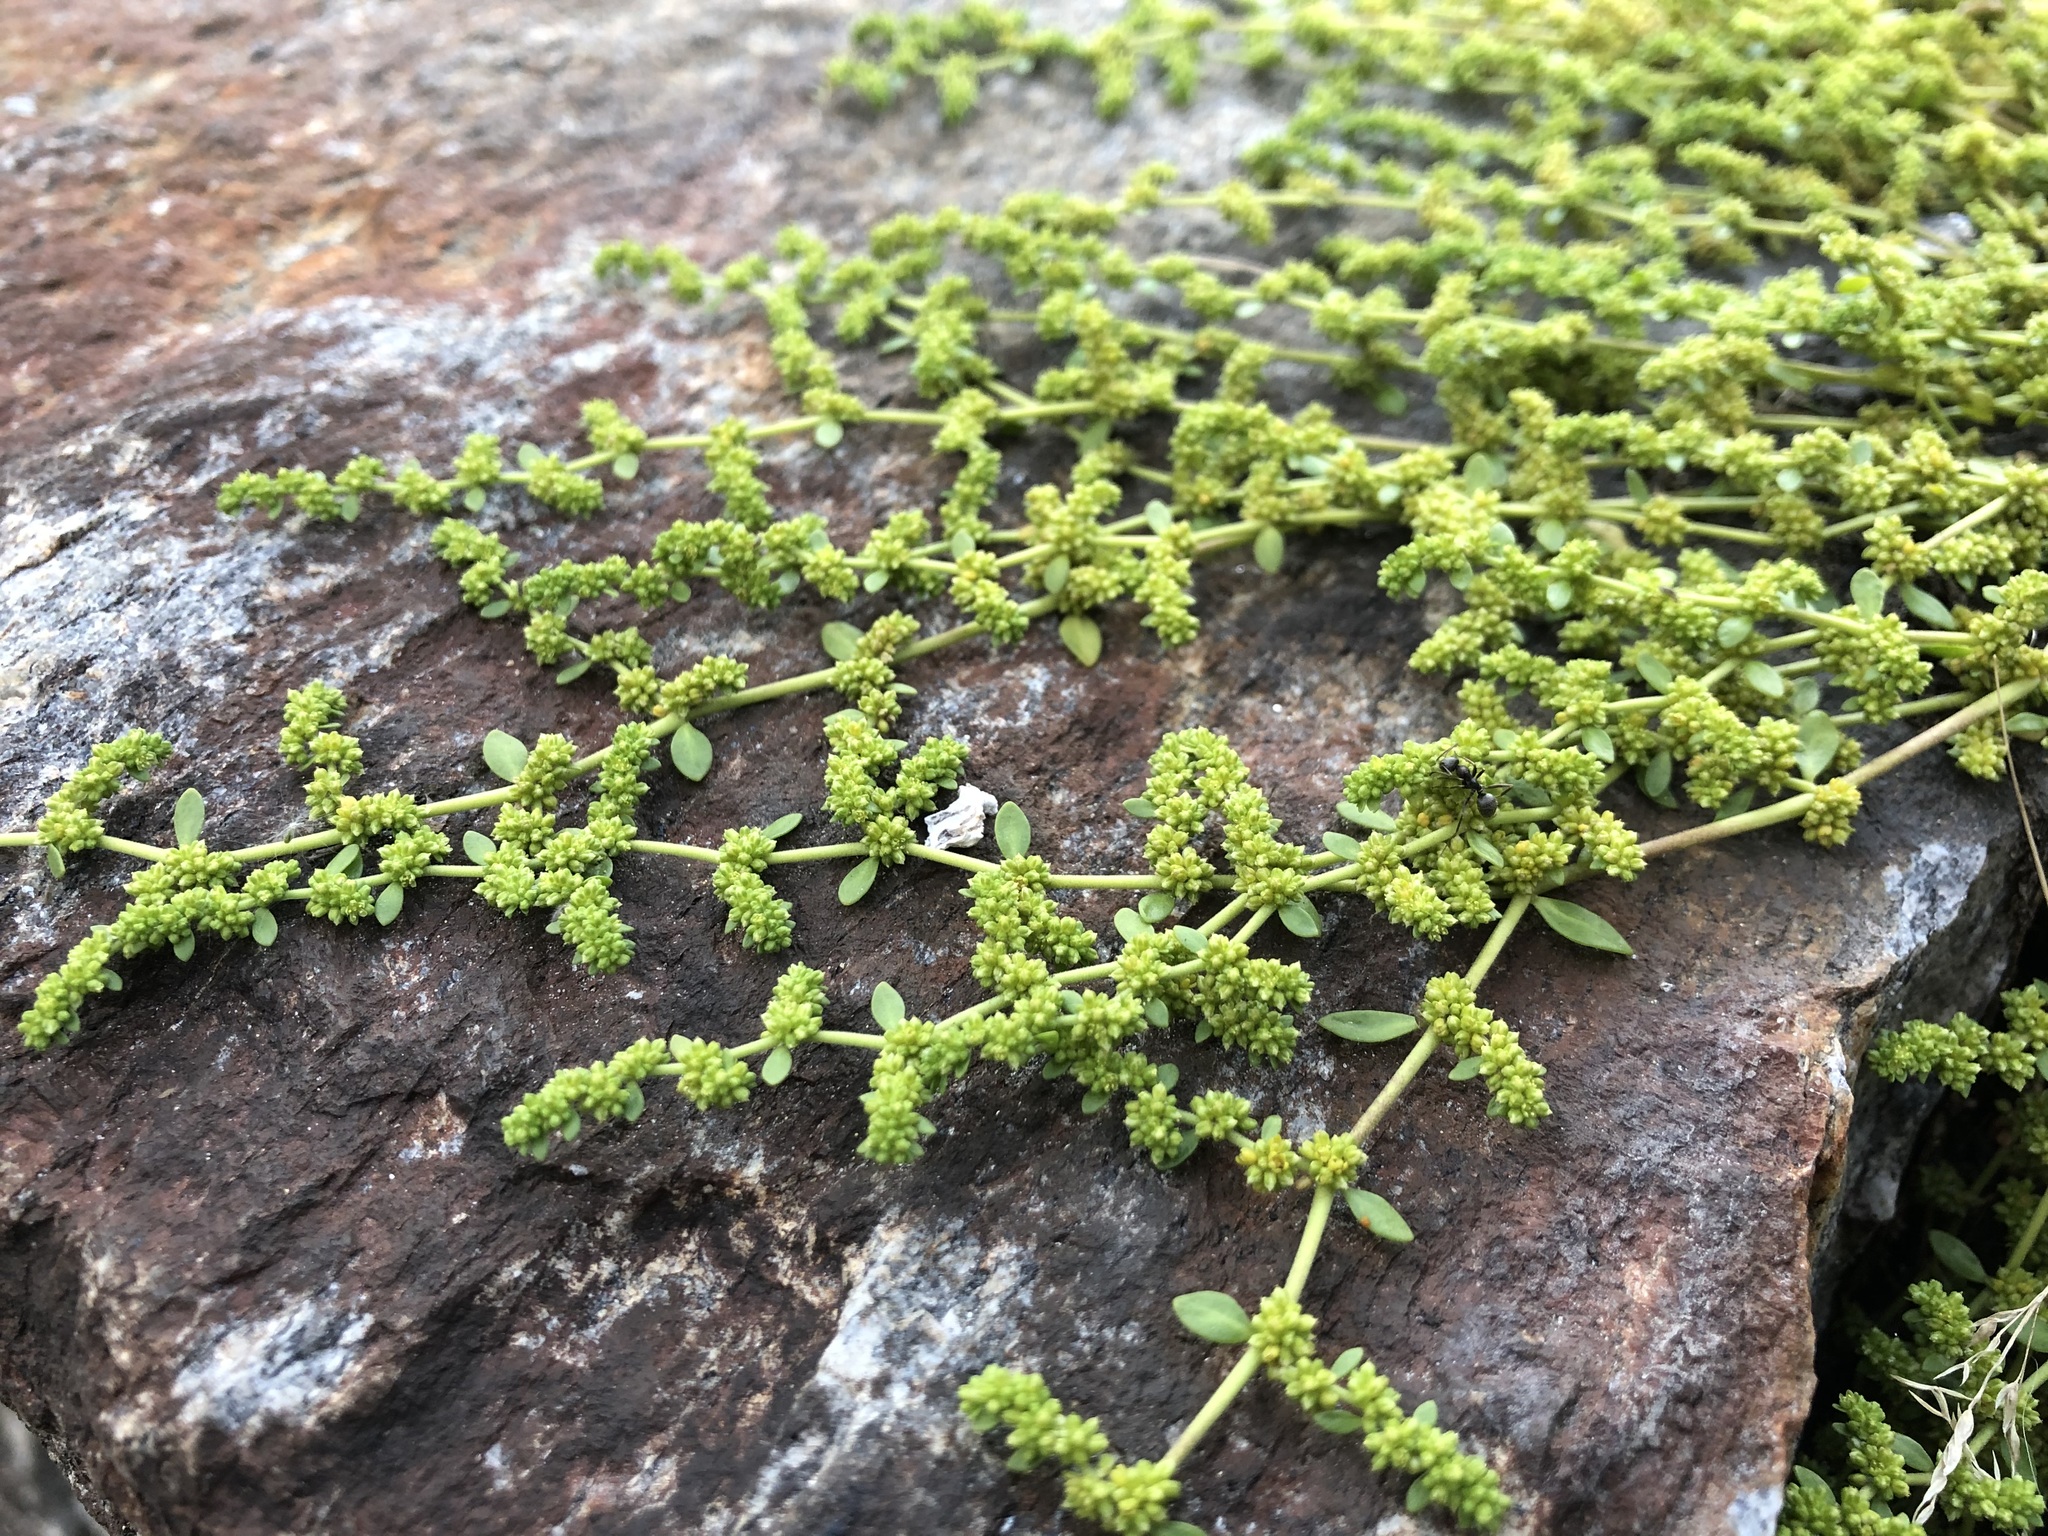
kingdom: Plantae
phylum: Tracheophyta
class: Magnoliopsida
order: Caryophyllales
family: Caryophyllaceae
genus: Herniaria
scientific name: Herniaria glabra
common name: Smooth rupturewort
